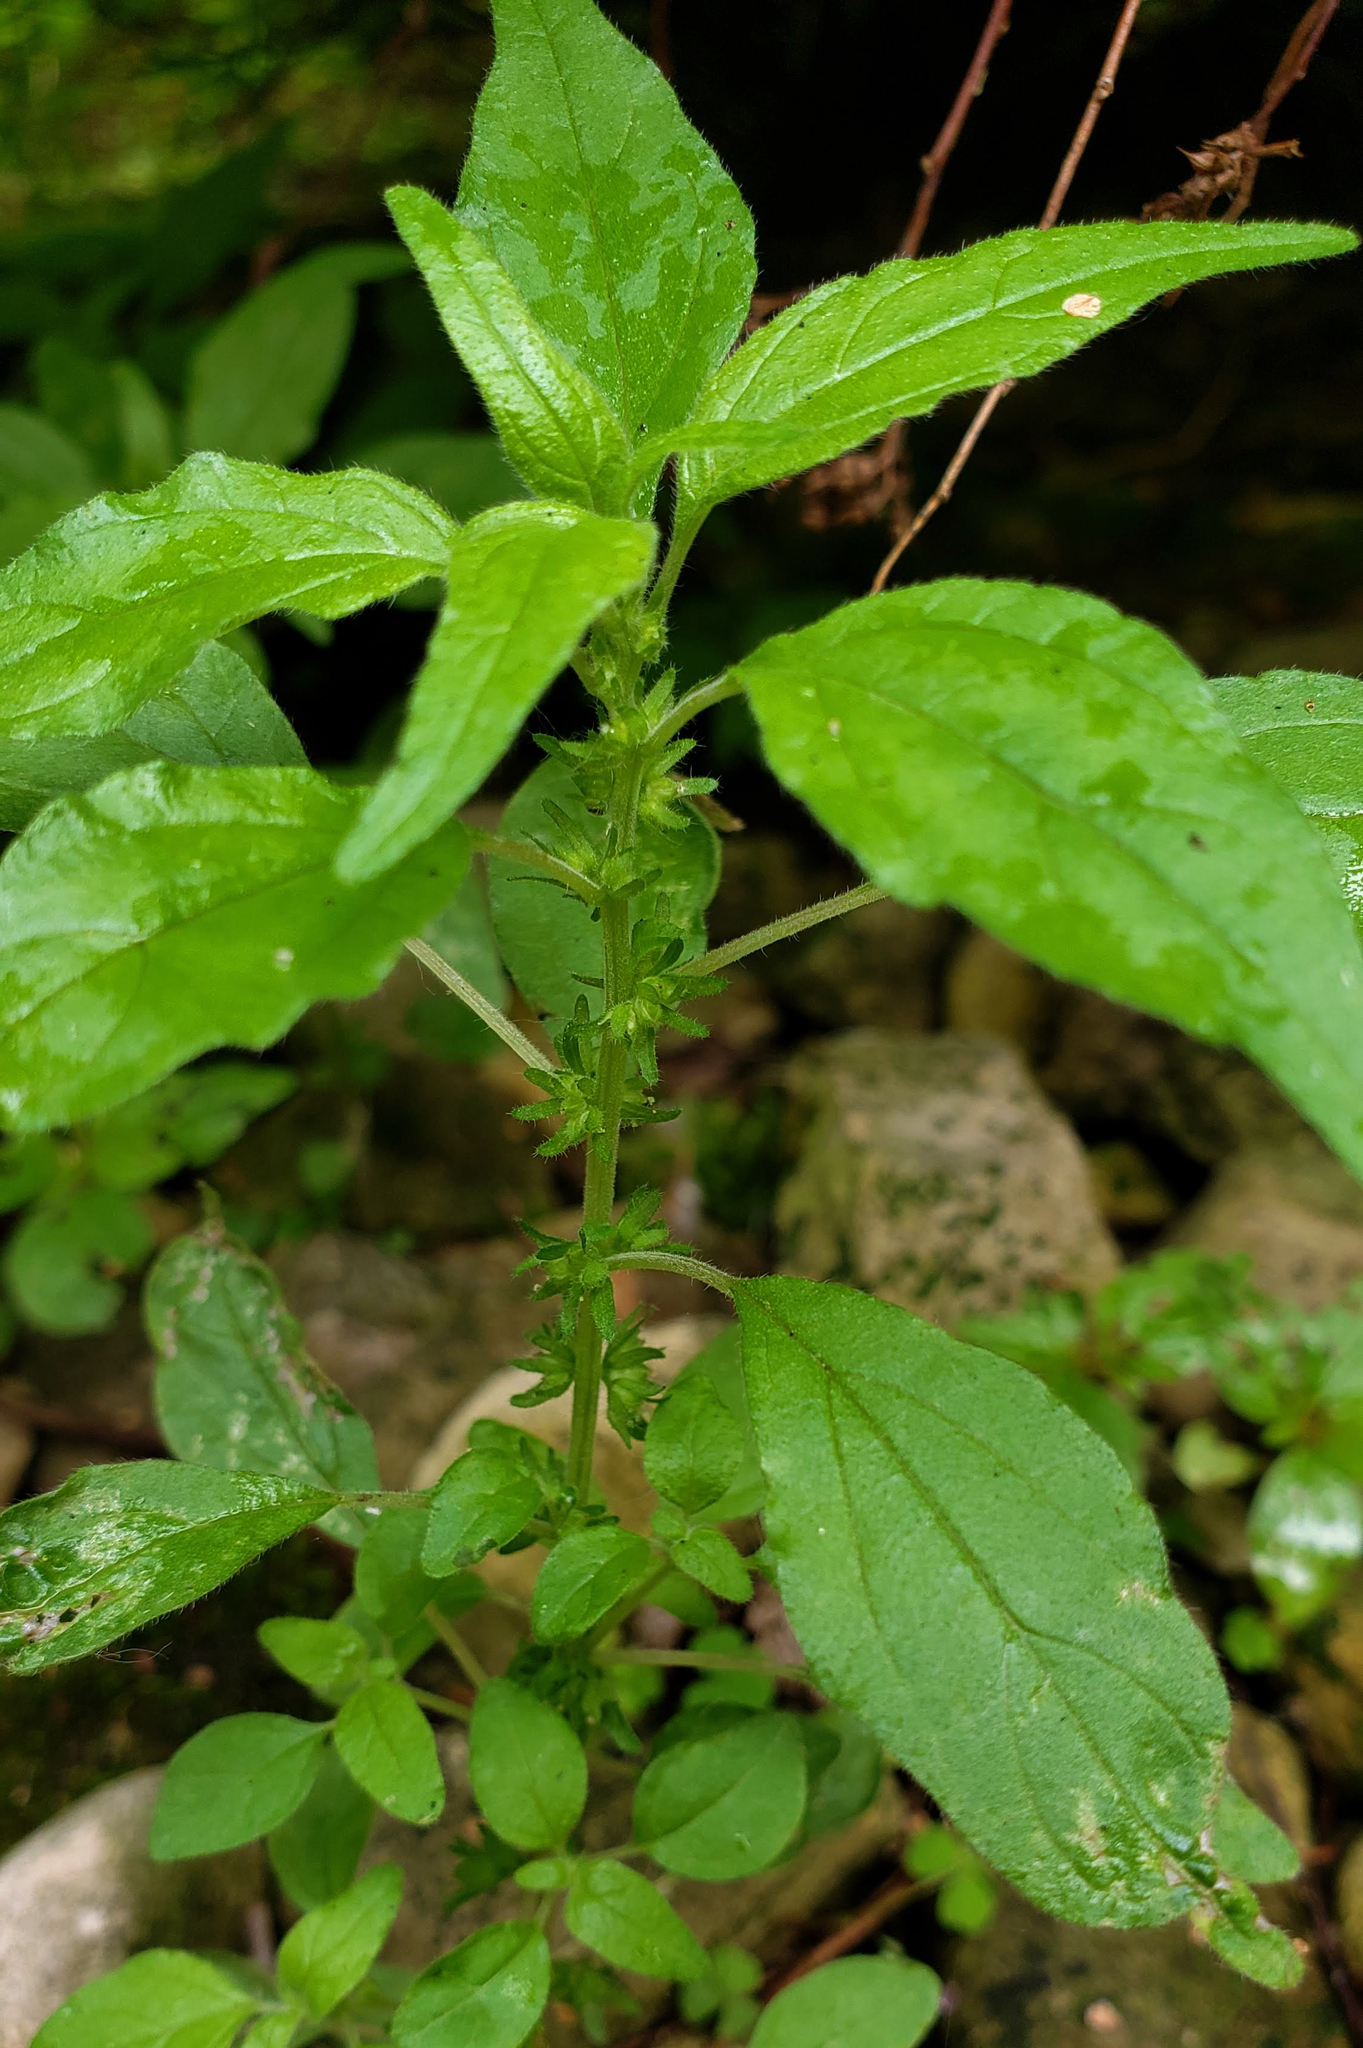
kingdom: Plantae
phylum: Tracheophyta
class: Magnoliopsida
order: Rosales
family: Urticaceae
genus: Parietaria
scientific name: Parietaria pensylvanica
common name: Pennsylvania pellitory
